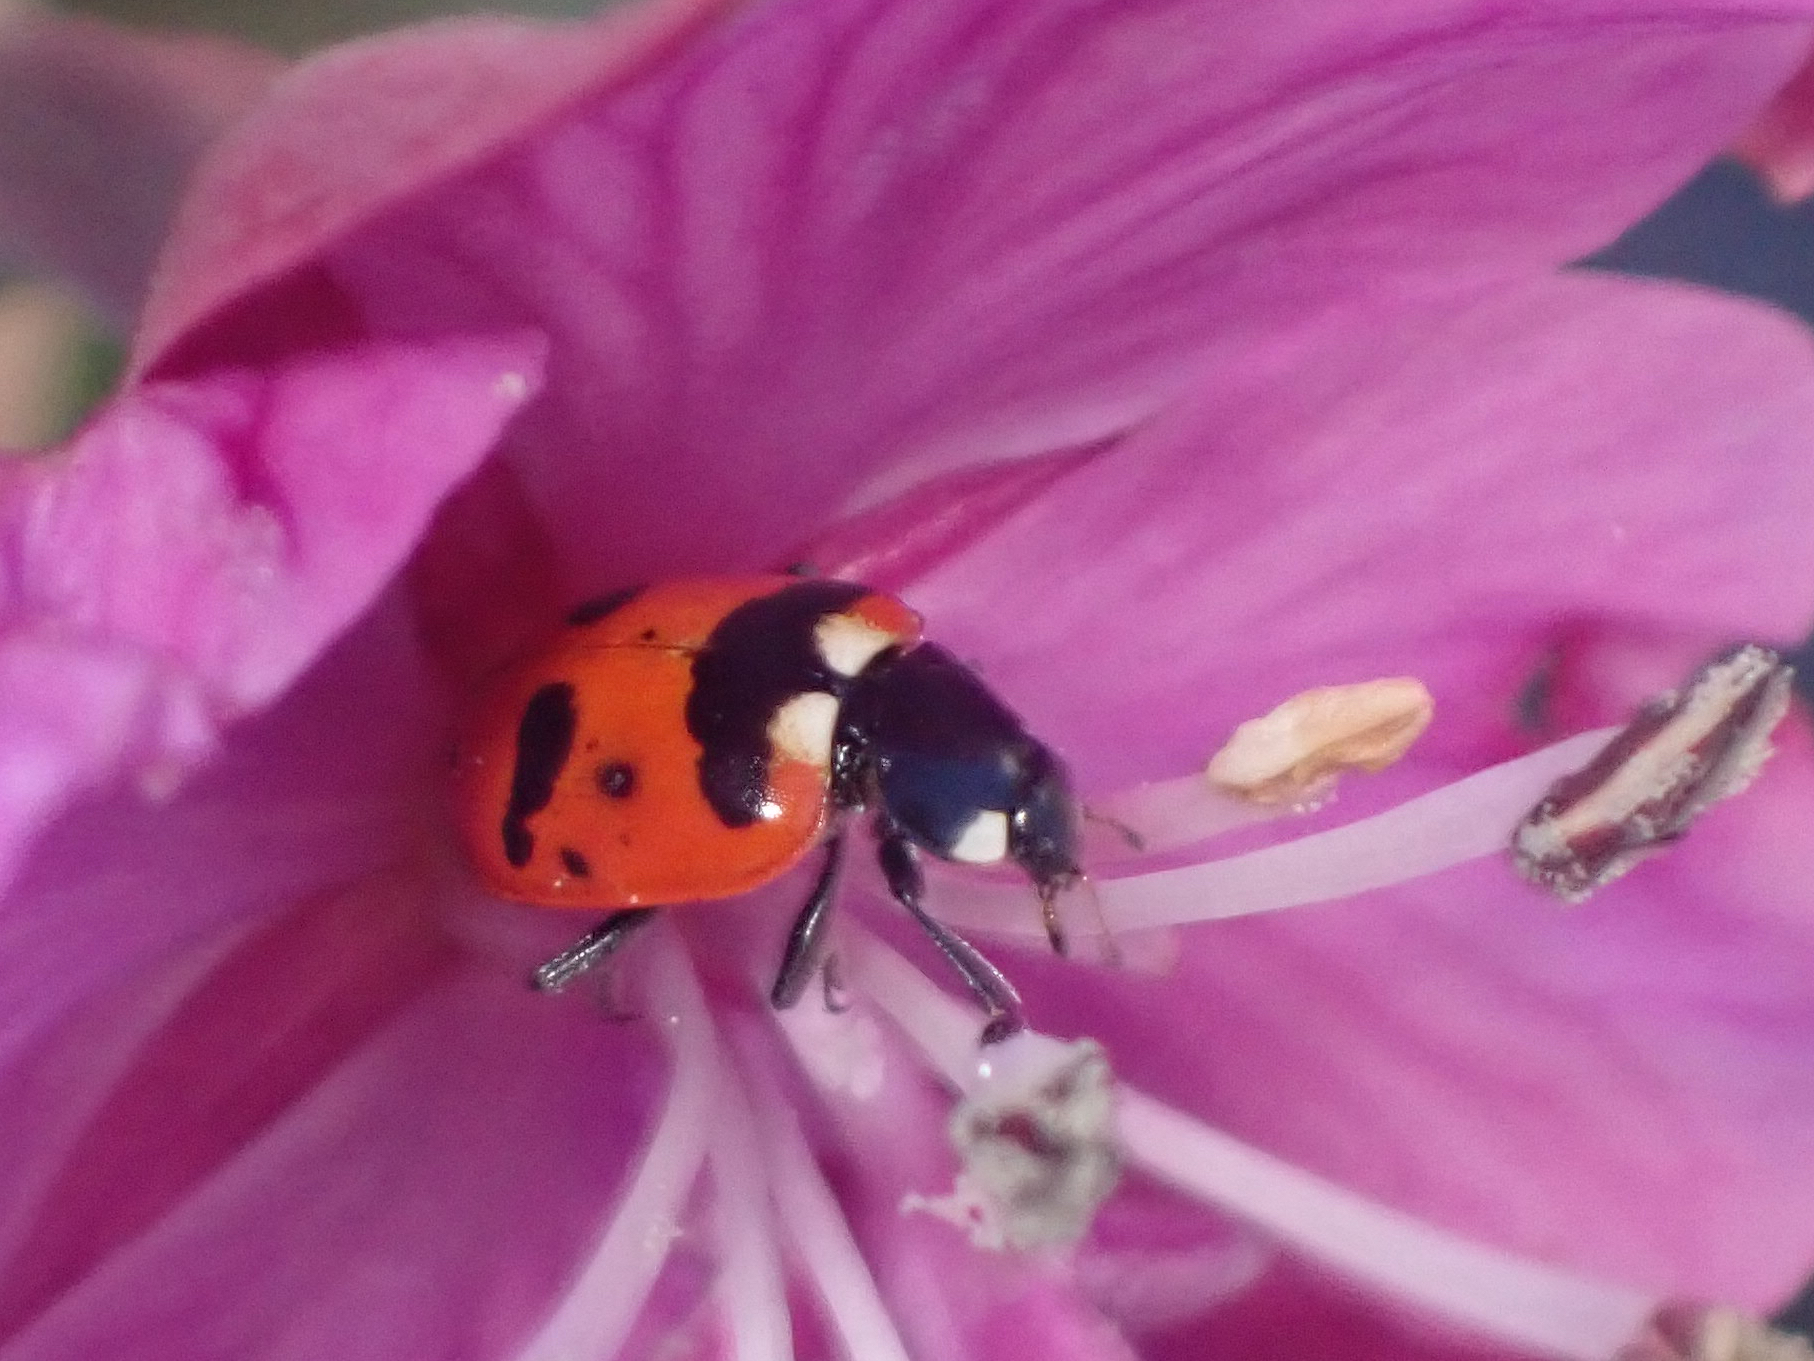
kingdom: Animalia
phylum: Arthropoda
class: Insecta
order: Coleoptera
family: Coccinellidae
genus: Hippodamia
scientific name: Hippodamia quinquesignata
